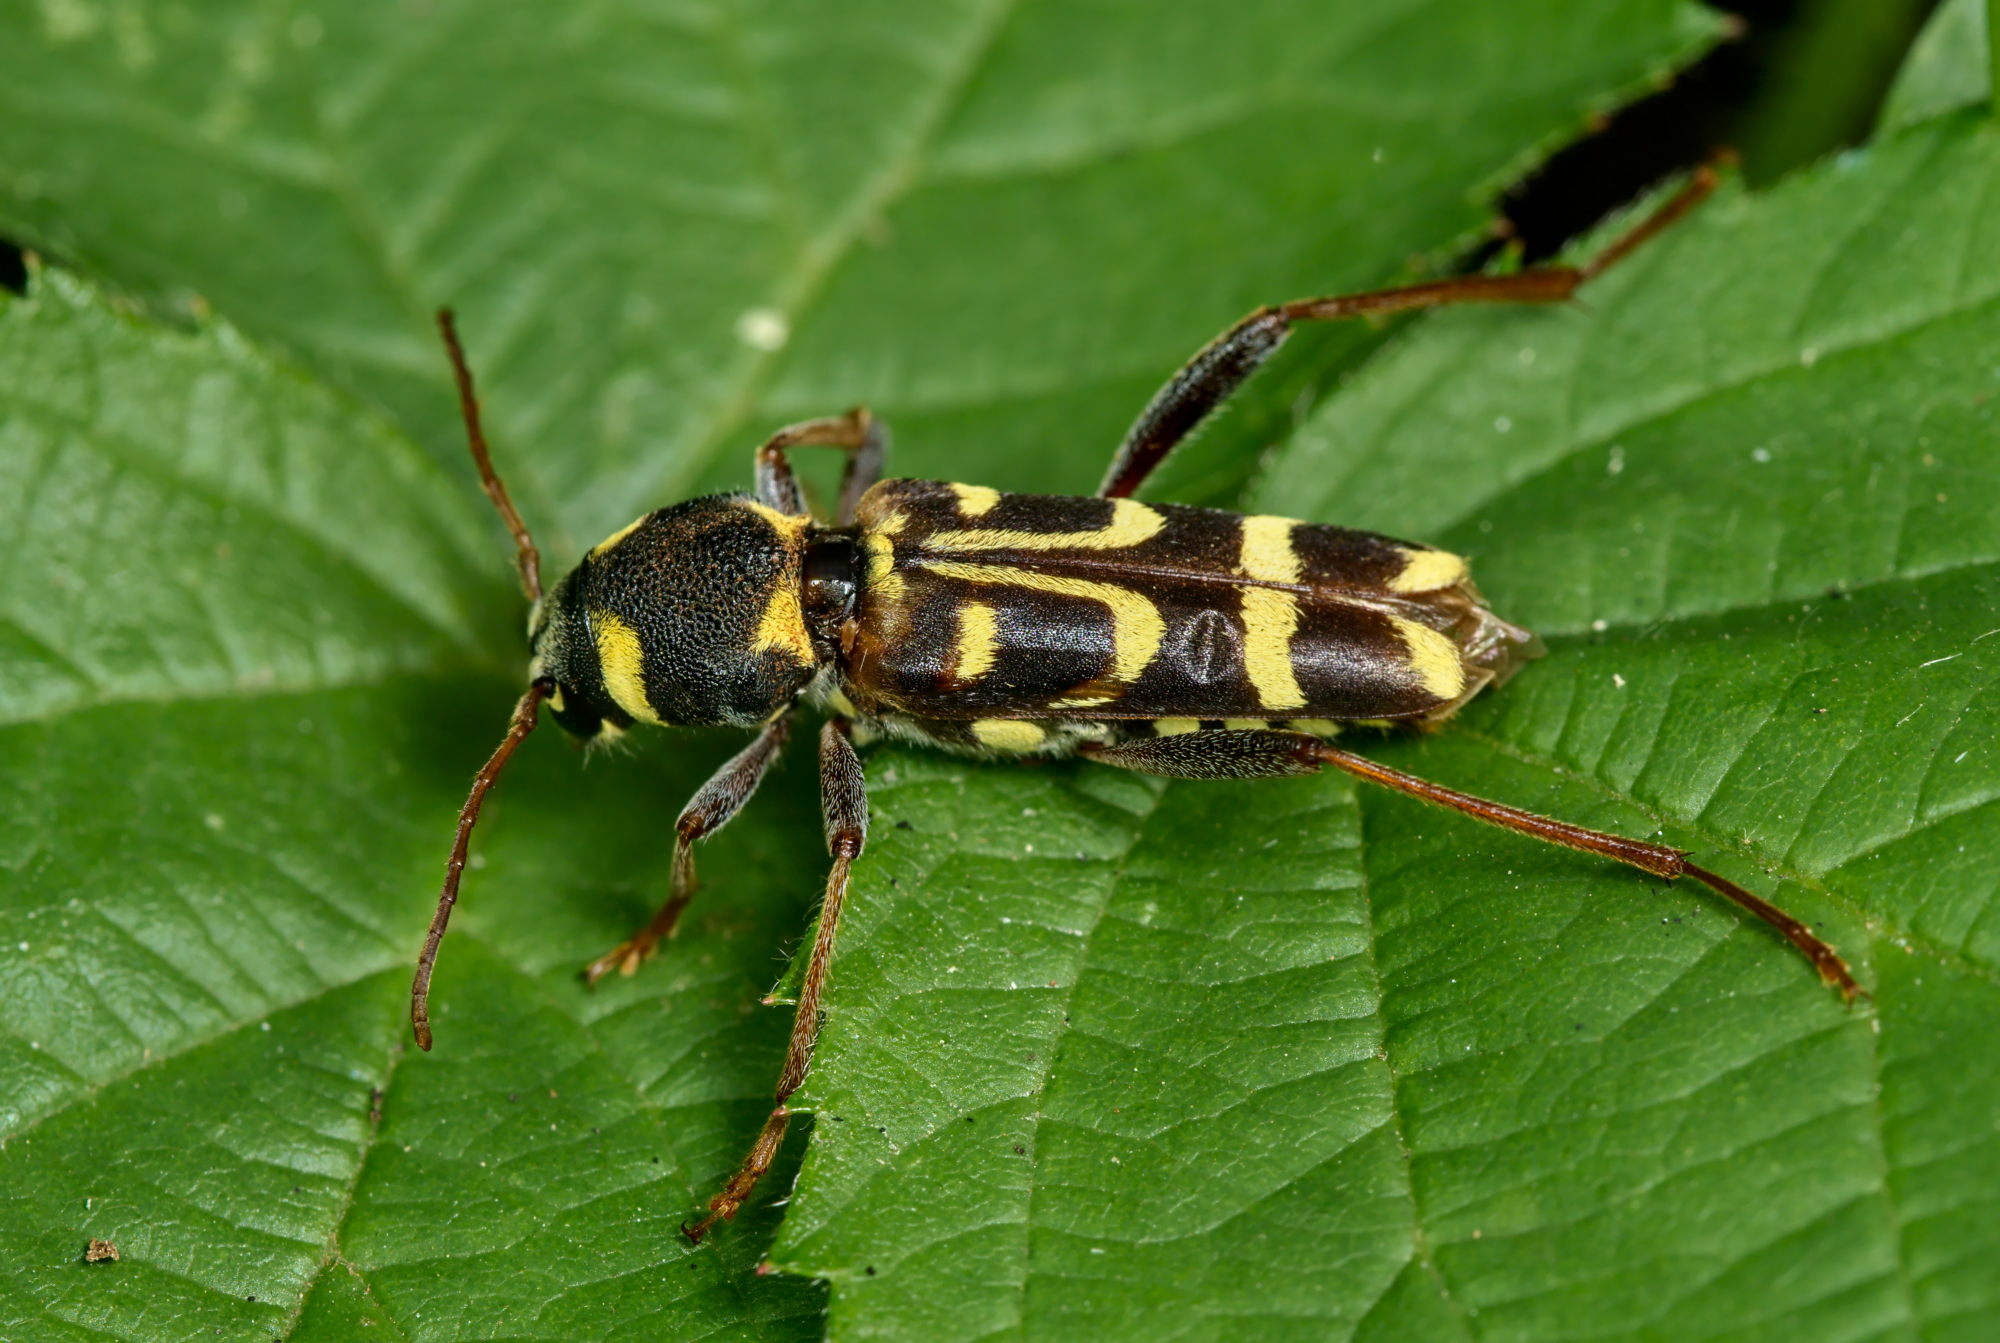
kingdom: Animalia
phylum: Arthropoda
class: Insecta
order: Coleoptera
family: Cerambycidae
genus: Xylotrechus
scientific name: Xylotrechus arvicola
